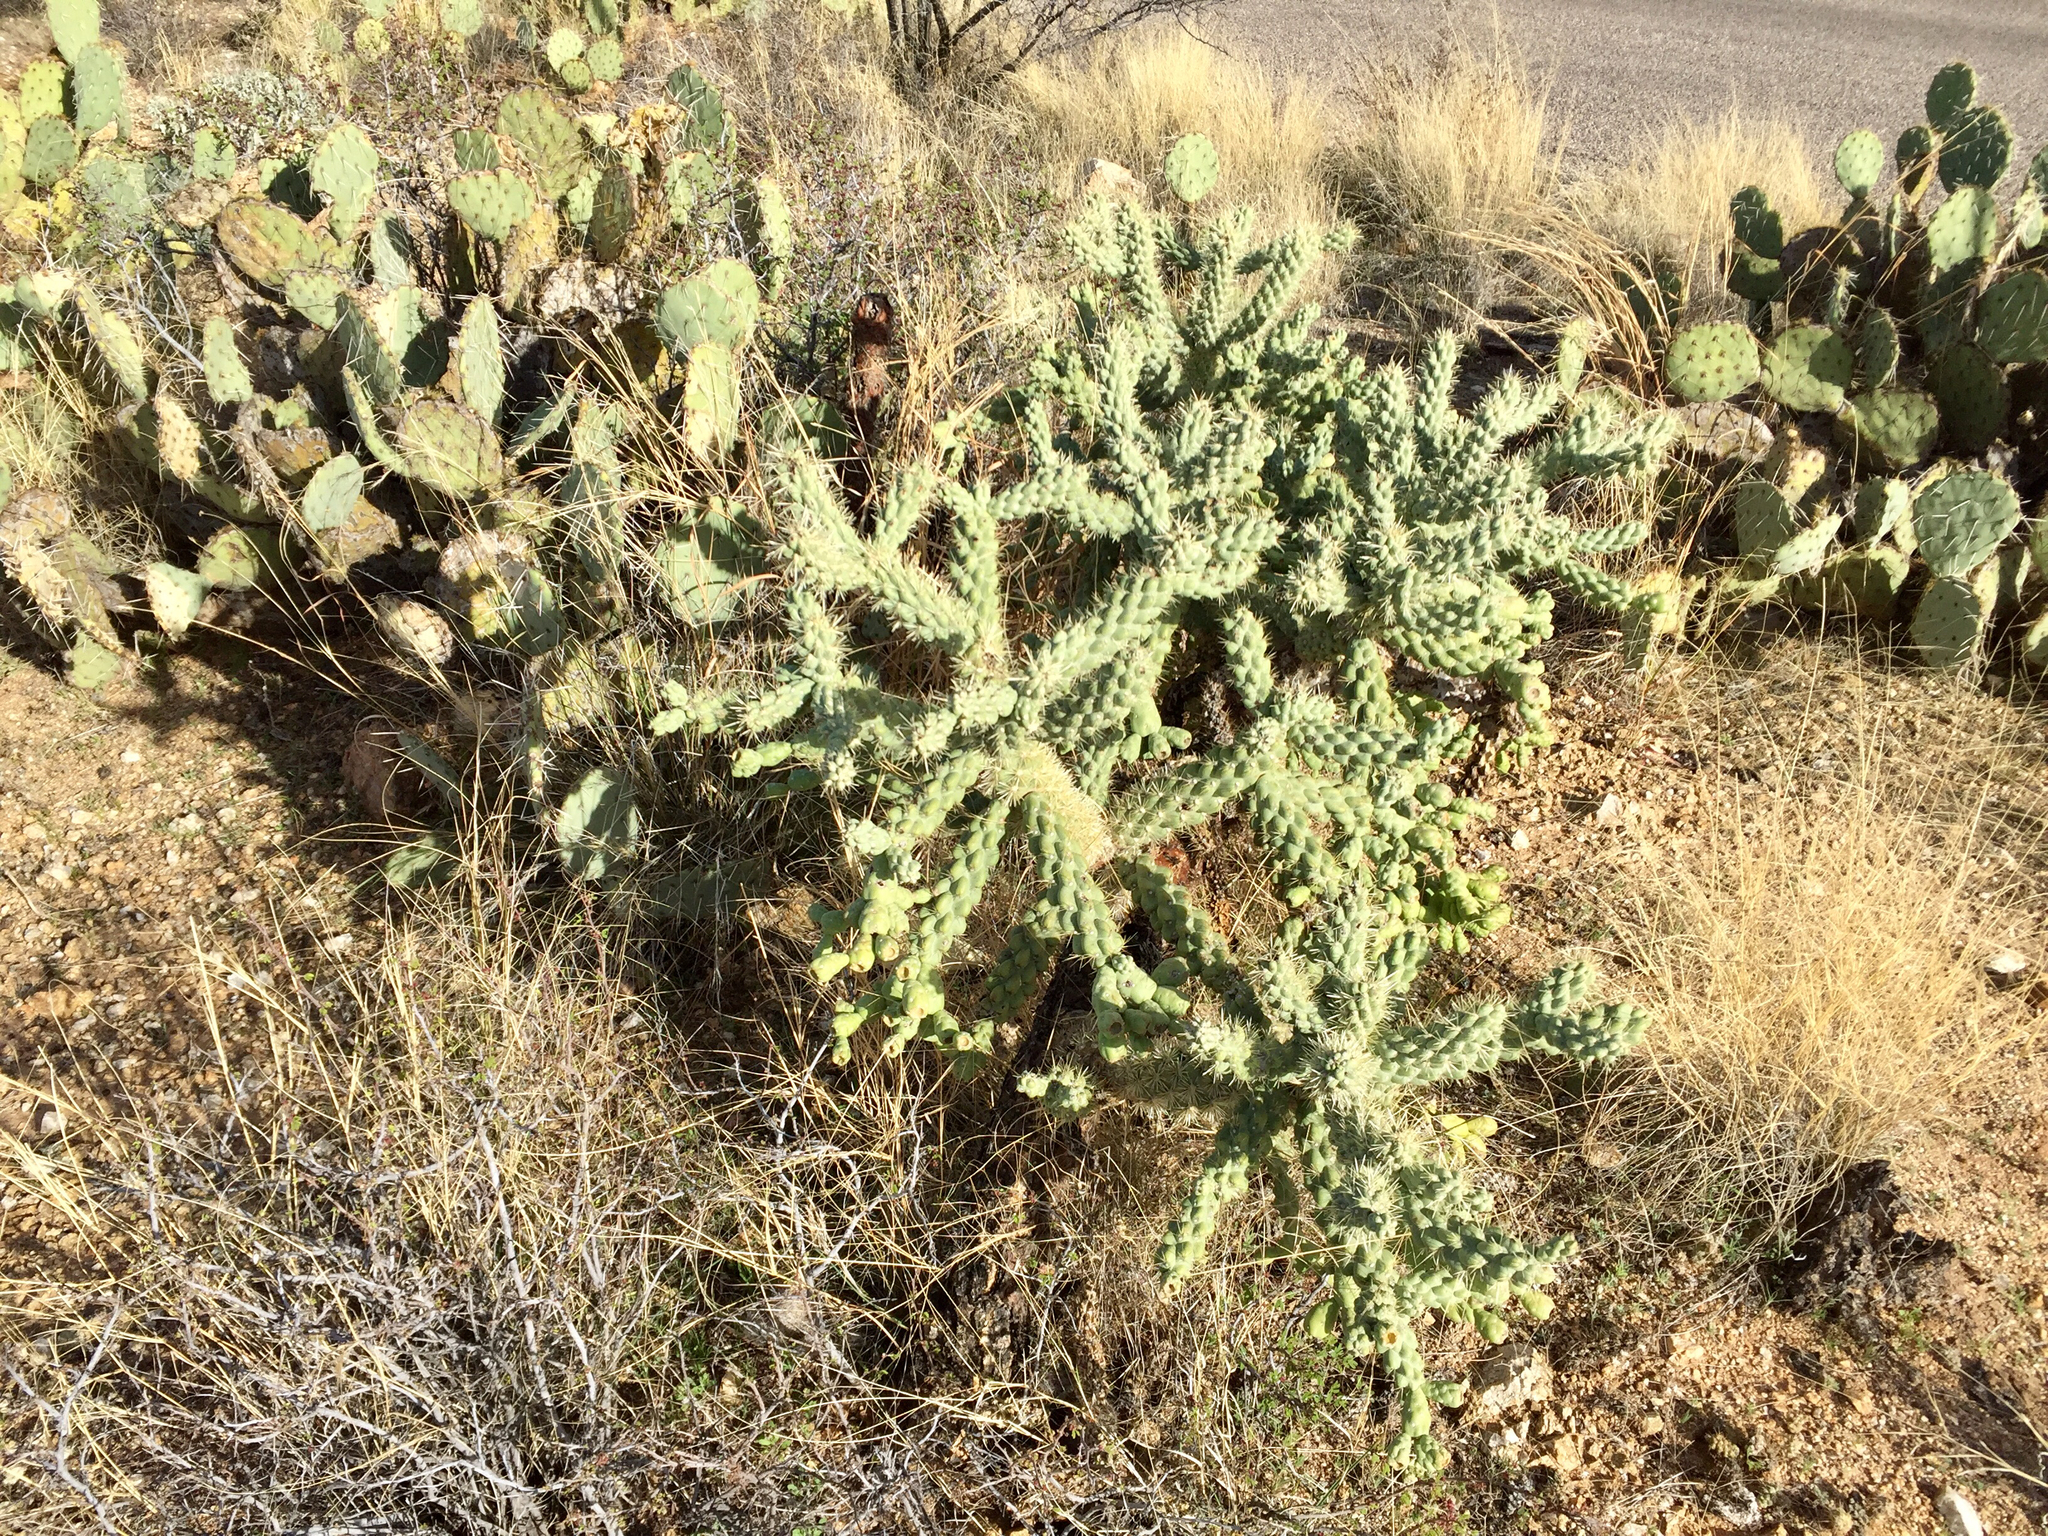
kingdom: Plantae
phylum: Tracheophyta
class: Magnoliopsida
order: Caryophyllales
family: Cactaceae
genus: Cylindropuntia
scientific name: Cylindropuntia fulgida
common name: Jumping cholla
